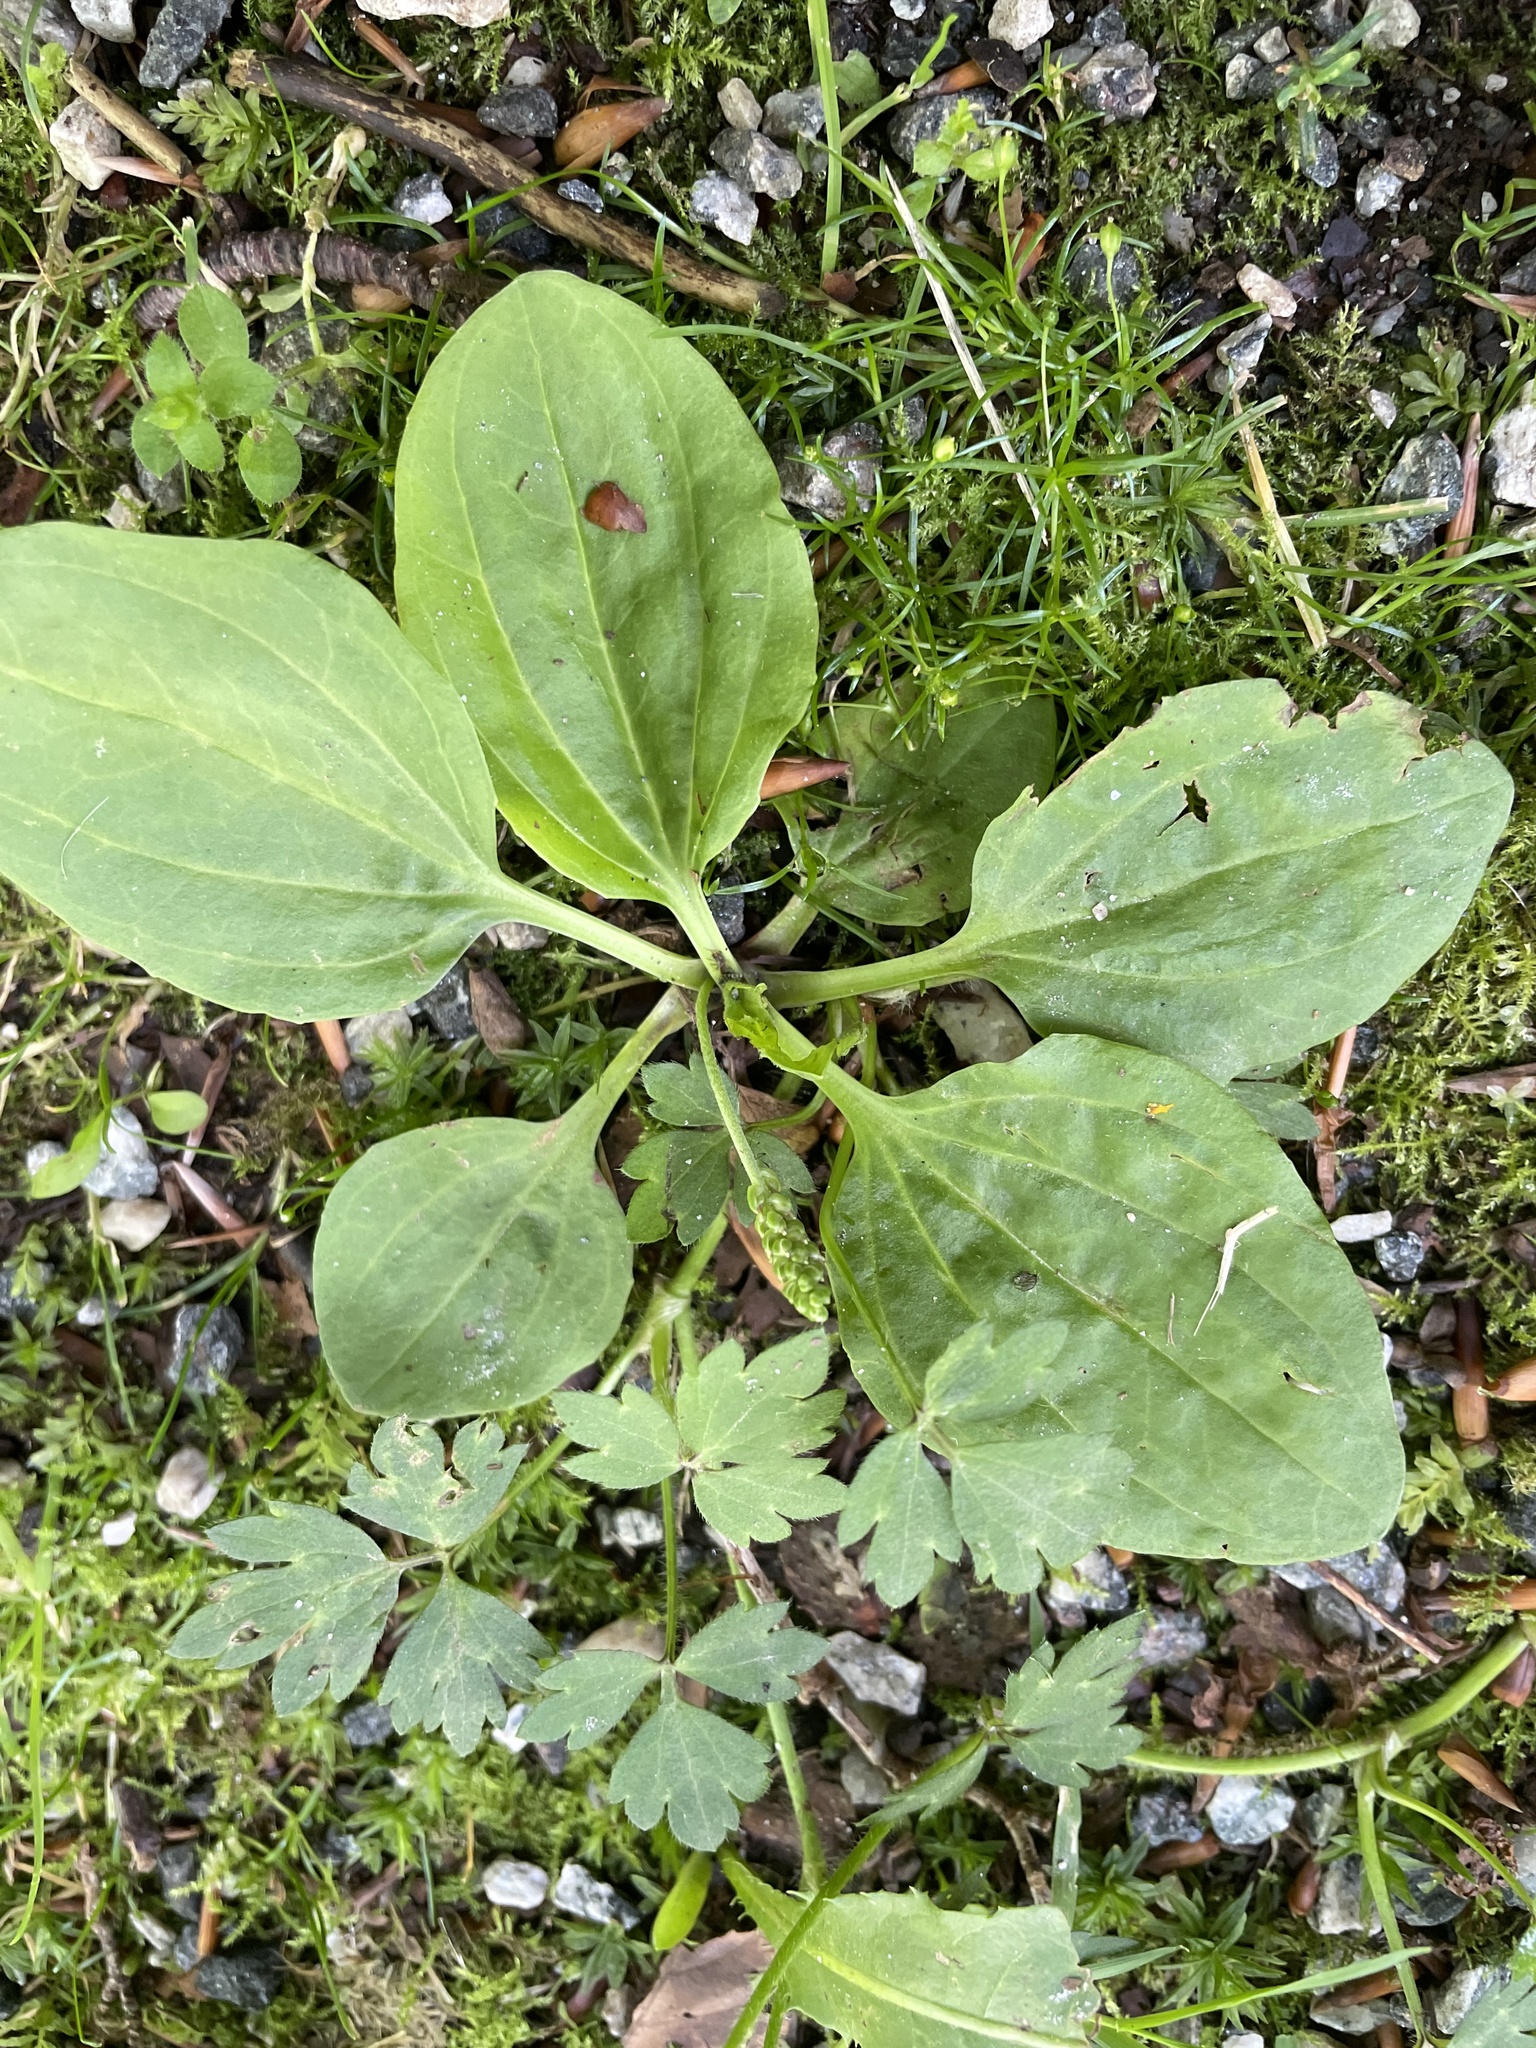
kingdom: Plantae
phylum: Tracheophyta
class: Magnoliopsida
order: Lamiales
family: Plantaginaceae
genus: Plantago
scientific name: Plantago major
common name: Common plantain
